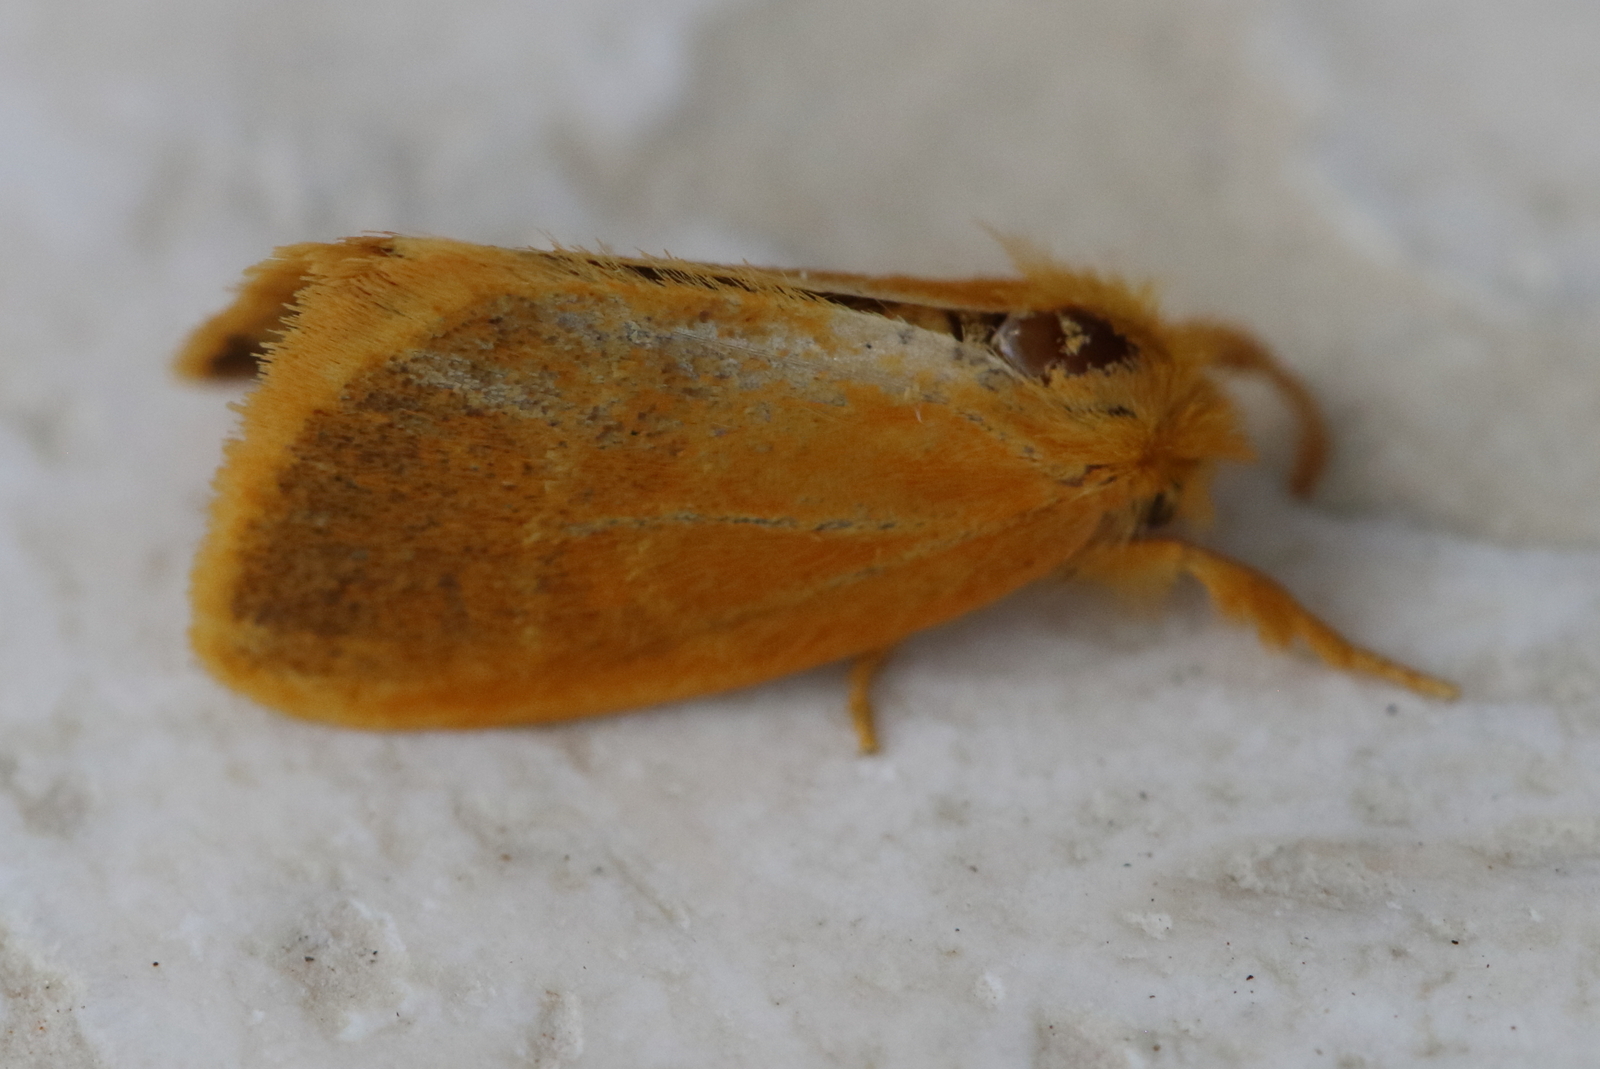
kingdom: Animalia
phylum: Arthropoda
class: Insecta
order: Lepidoptera
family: Erebidae
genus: Euproctis
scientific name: Euproctis lucifuga
